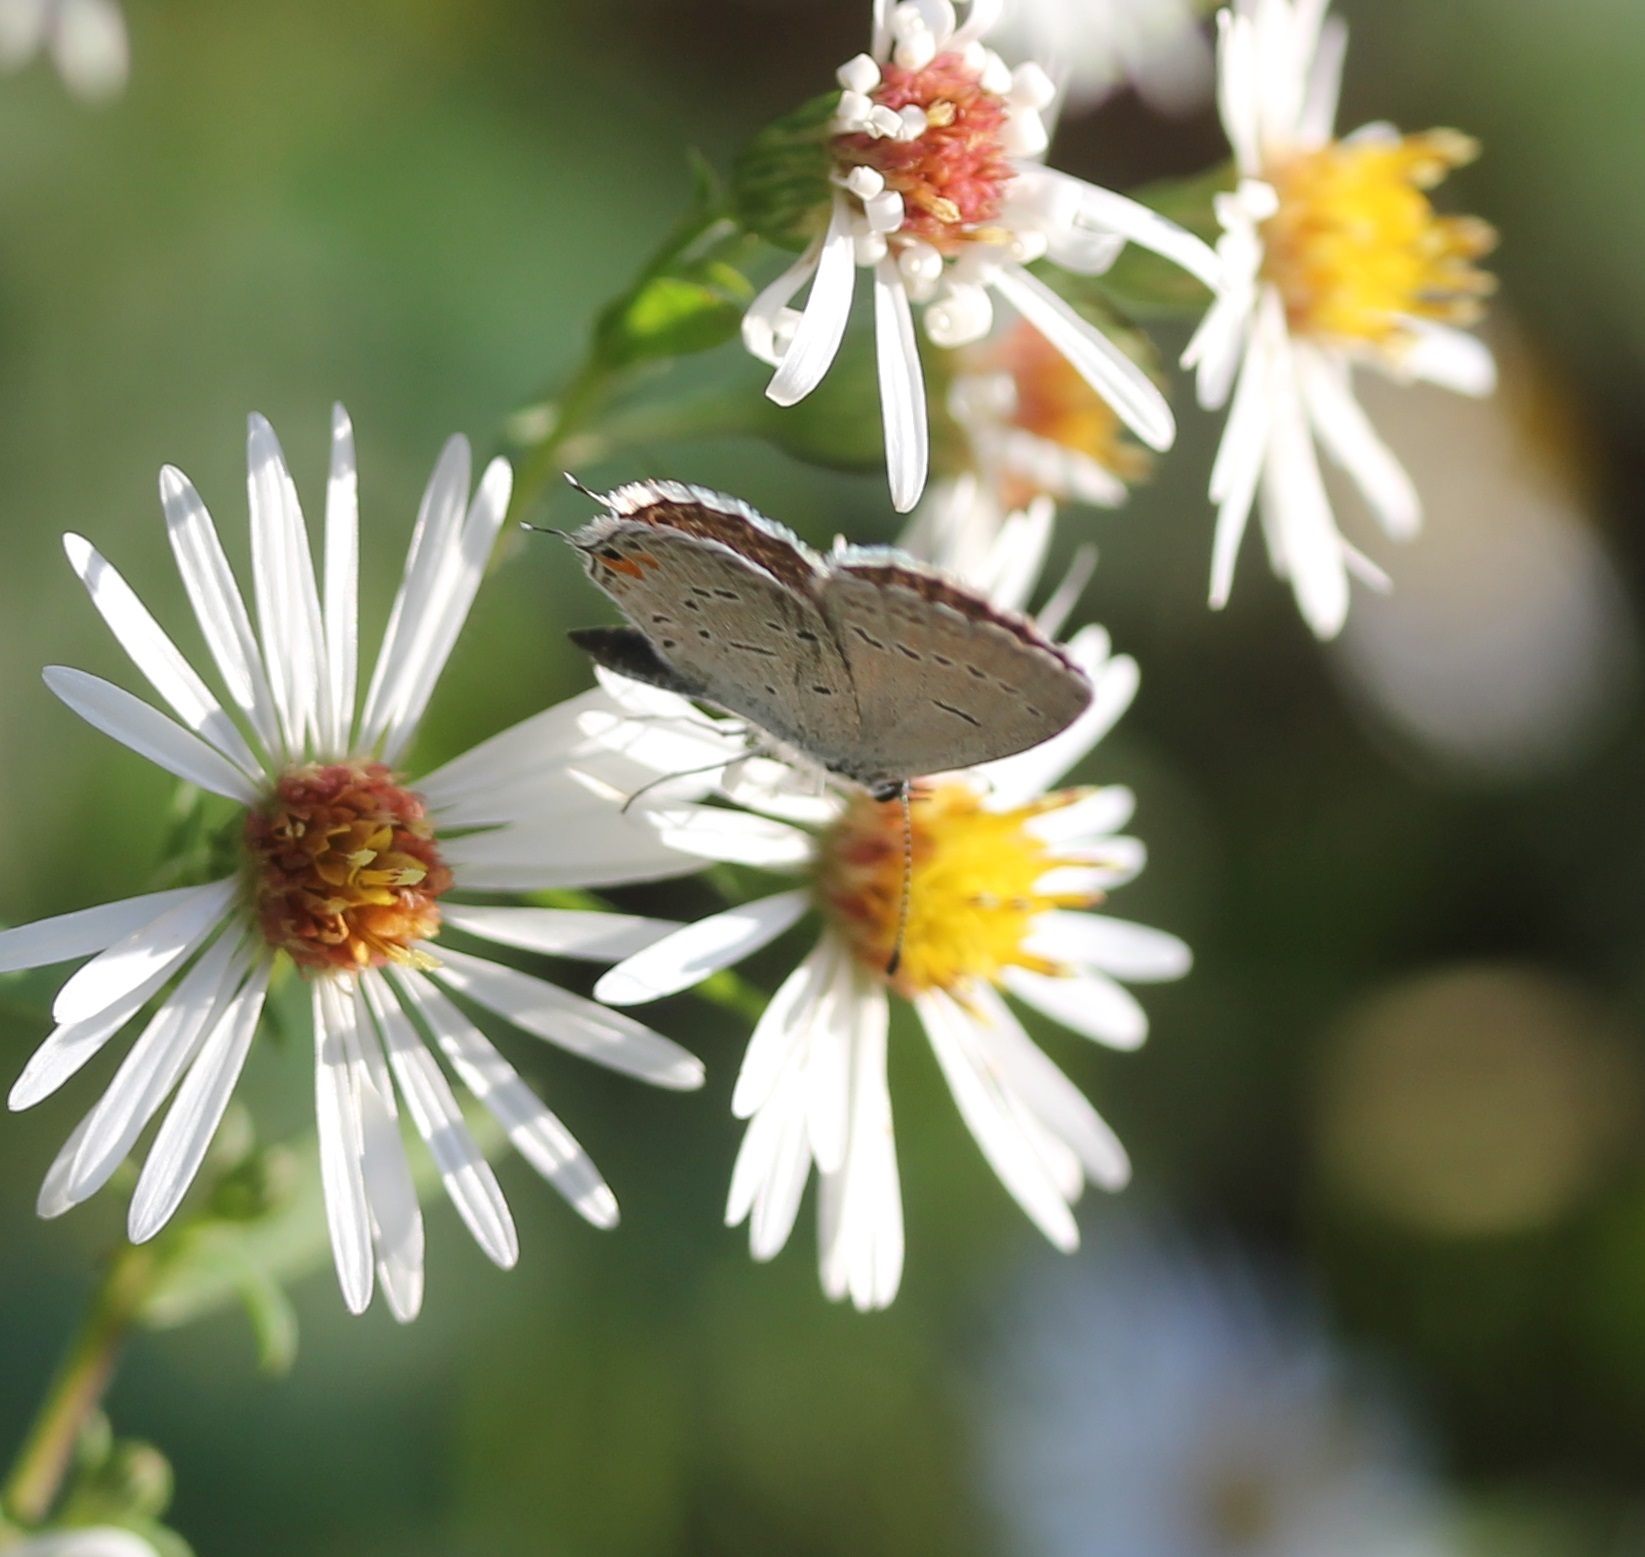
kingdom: Animalia
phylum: Arthropoda
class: Insecta
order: Lepidoptera
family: Lycaenidae
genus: Elkalyce
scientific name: Elkalyce comyntas
